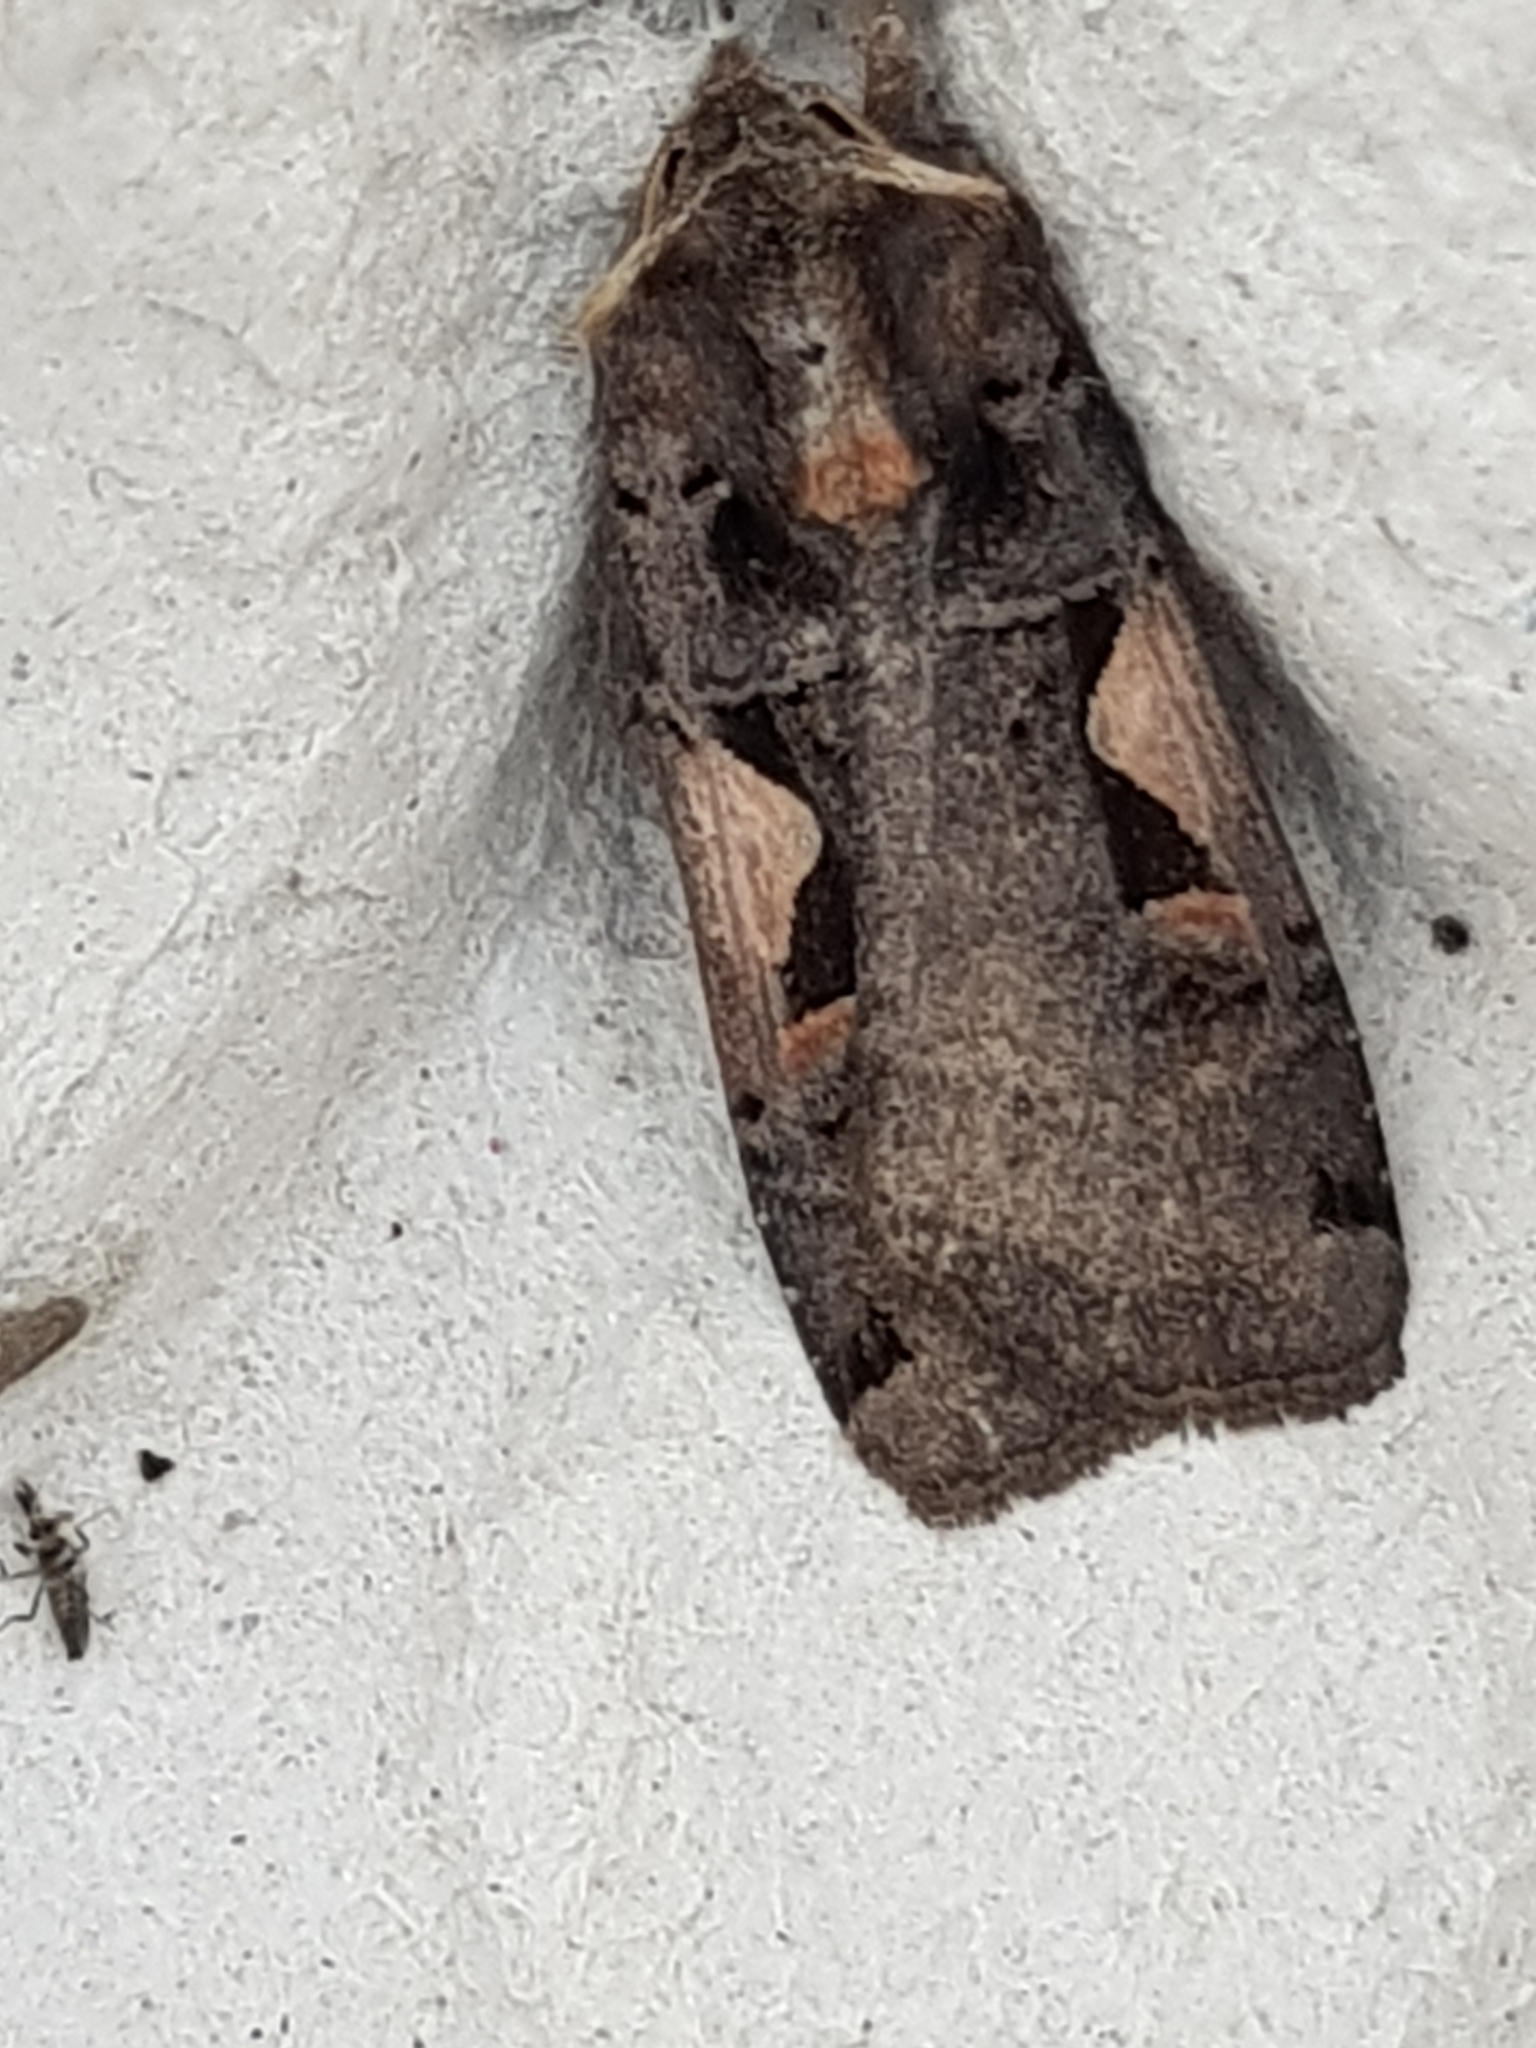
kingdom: Animalia
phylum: Arthropoda
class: Insecta
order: Lepidoptera
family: Noctuidae
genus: Xestia
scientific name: Xestia c-nigrum
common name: Setaceous hebrew character
